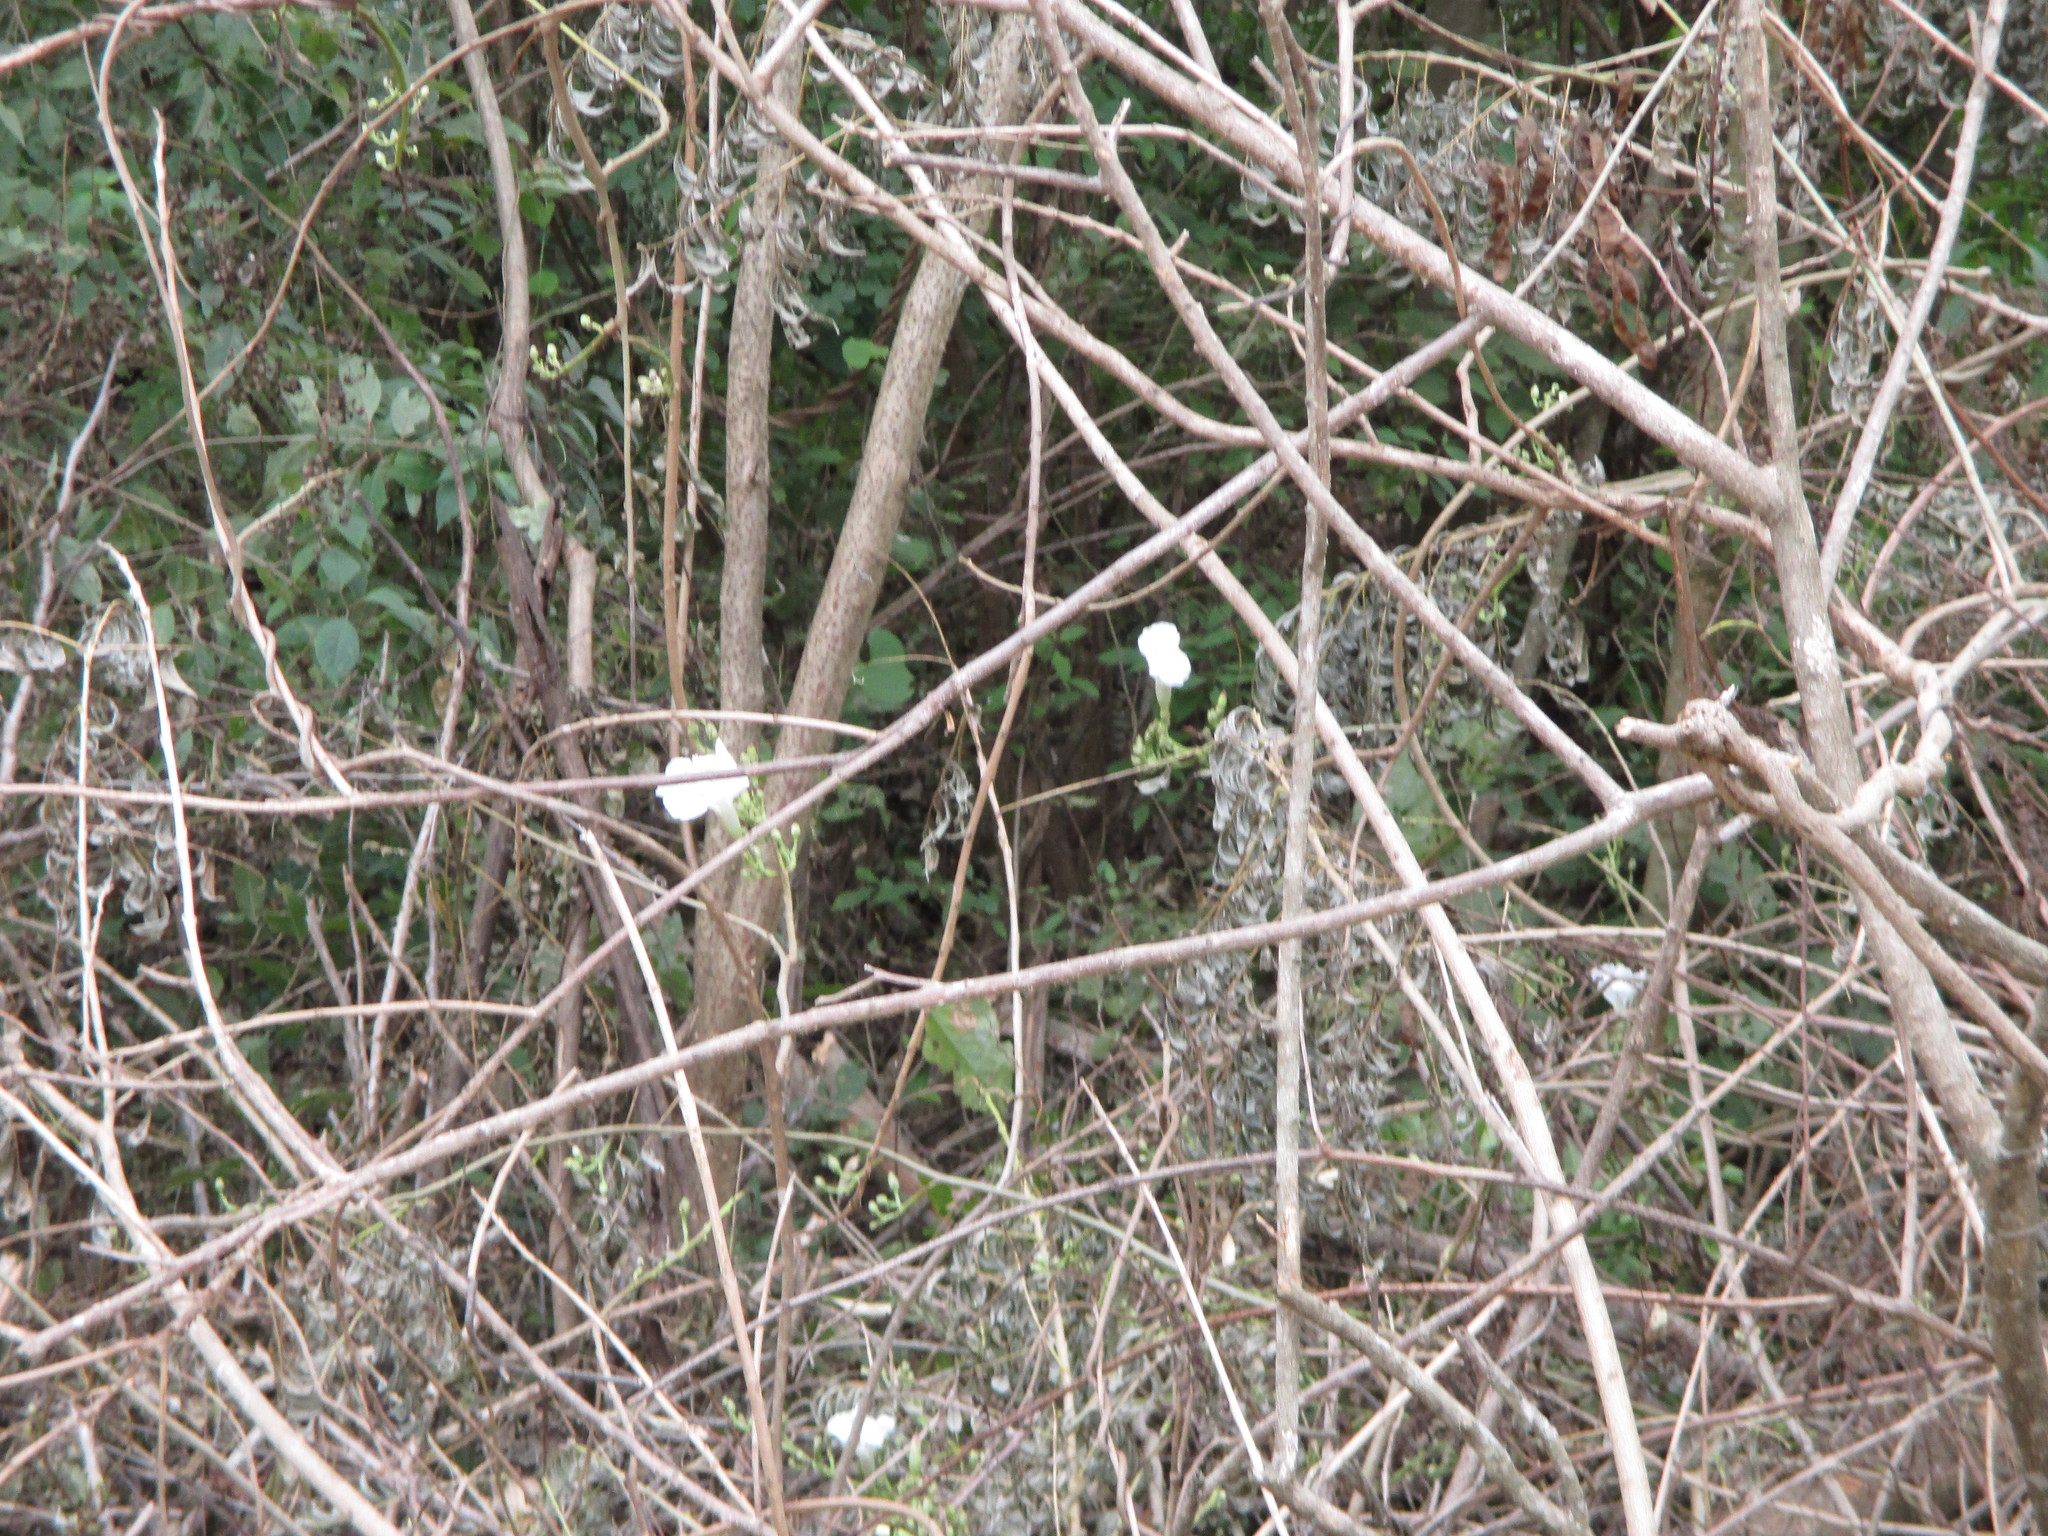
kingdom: Plantae
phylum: Tracheophyta
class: Magnoliopsida
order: Solanales
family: Convolvulaceae
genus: Ipomoea
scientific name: Ipomoea populina
